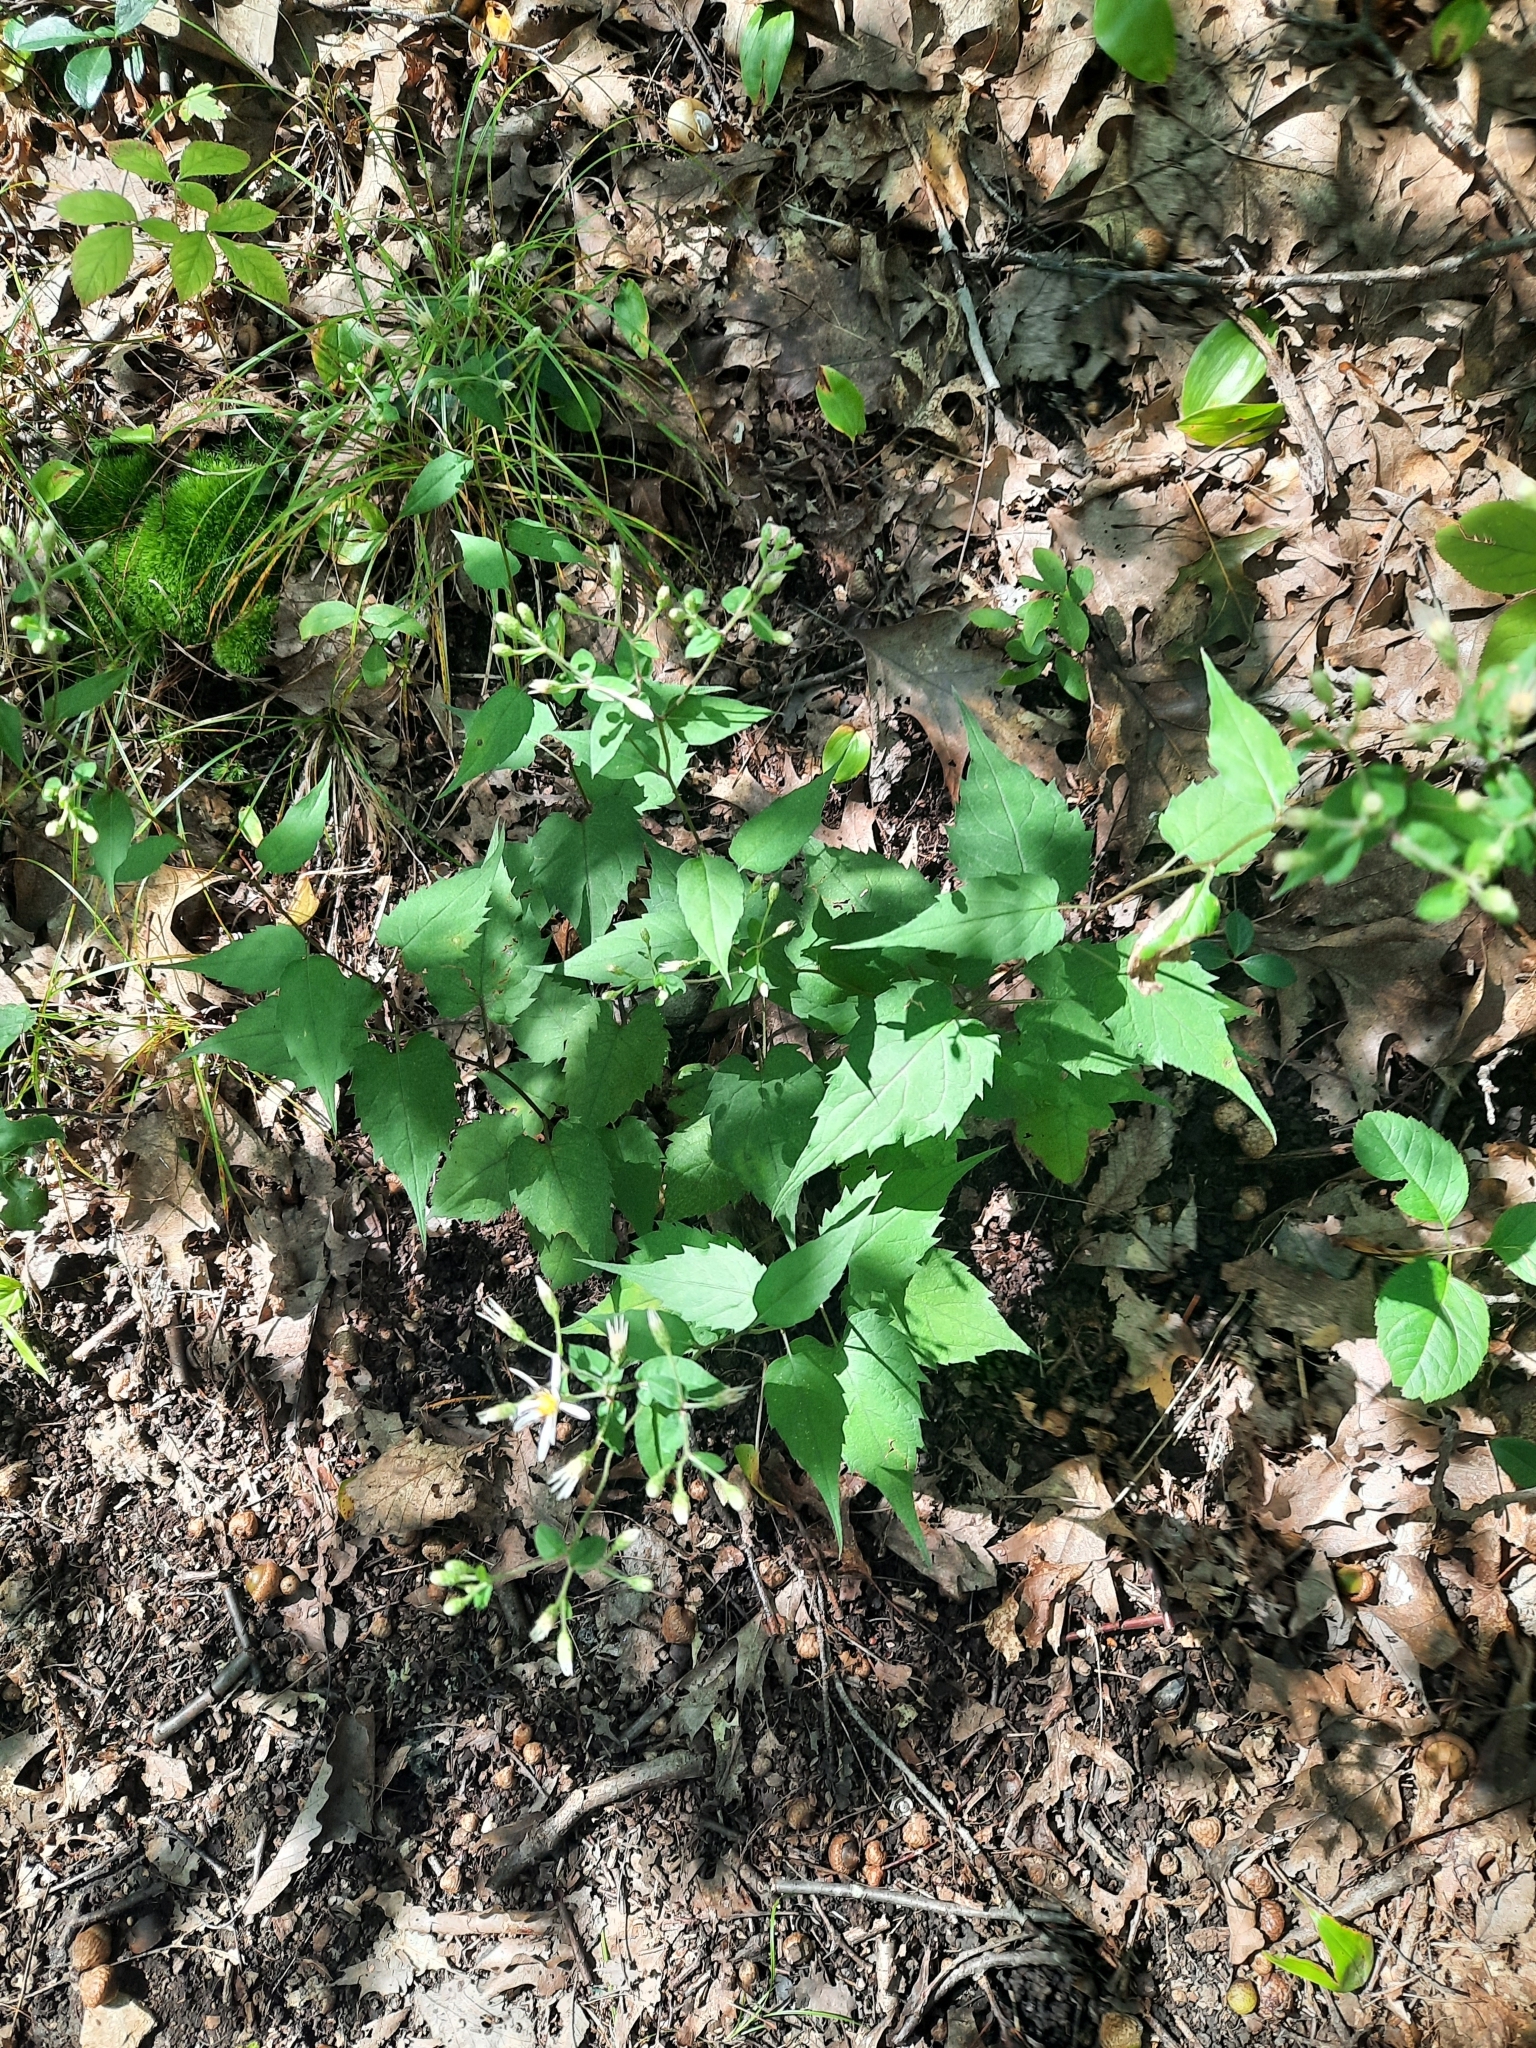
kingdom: Plantae
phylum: Tracheophyta
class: Magnoliopsida
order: Asterales
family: Asteraceae
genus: Eurybia
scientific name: Eurybia divaricata
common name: White wood aster
